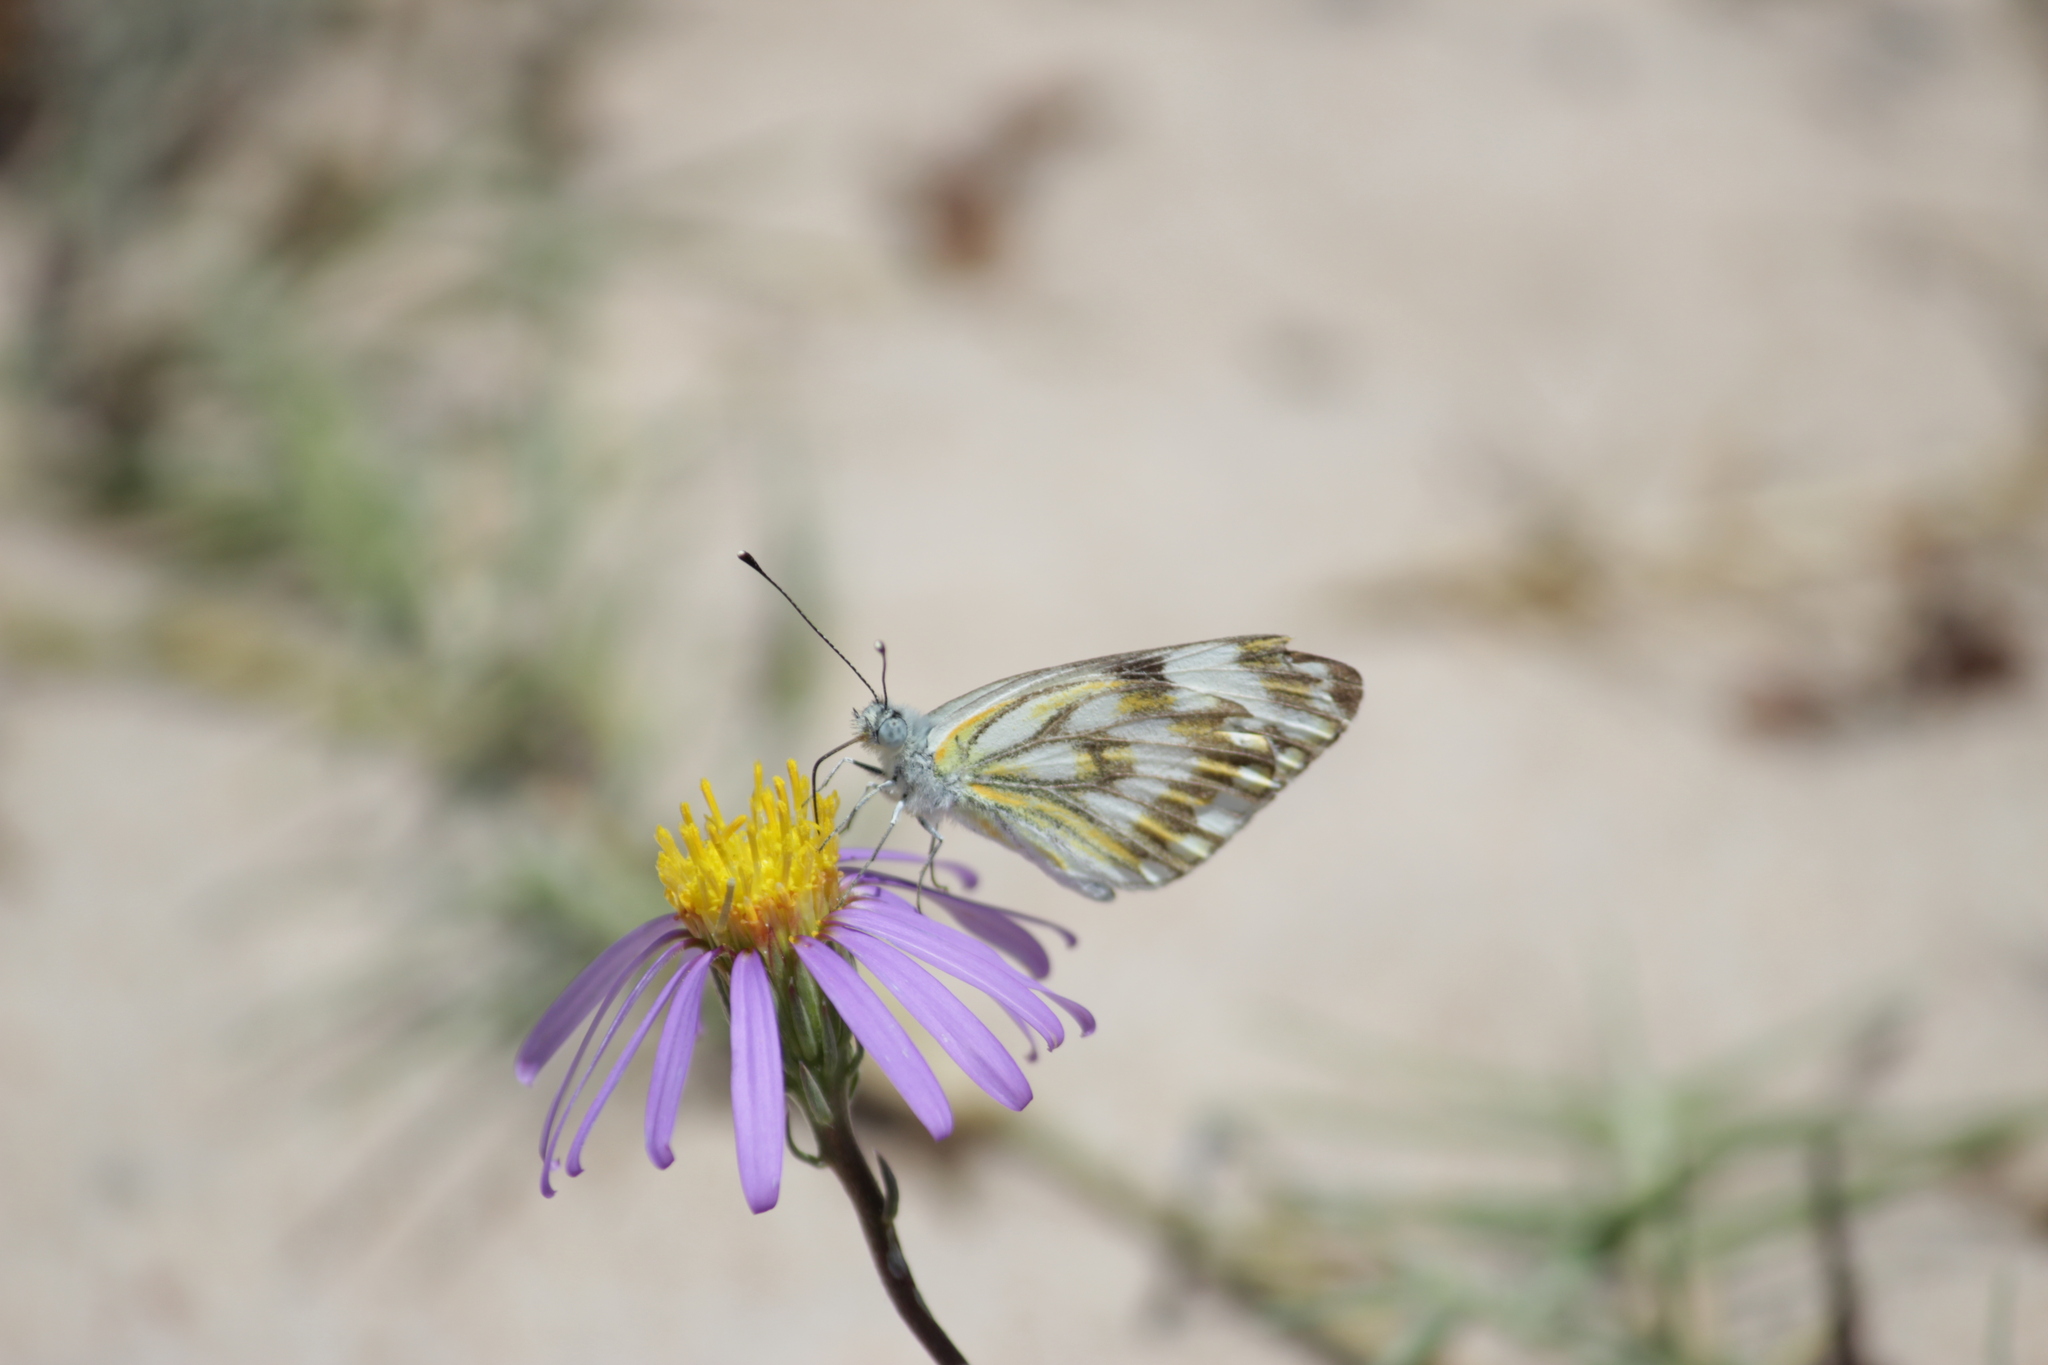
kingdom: Animalia
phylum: Arthropoda
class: Insecta
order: Lepidoptera
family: Pieridae
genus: Pontia
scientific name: Pontia helice
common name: Meadow white
